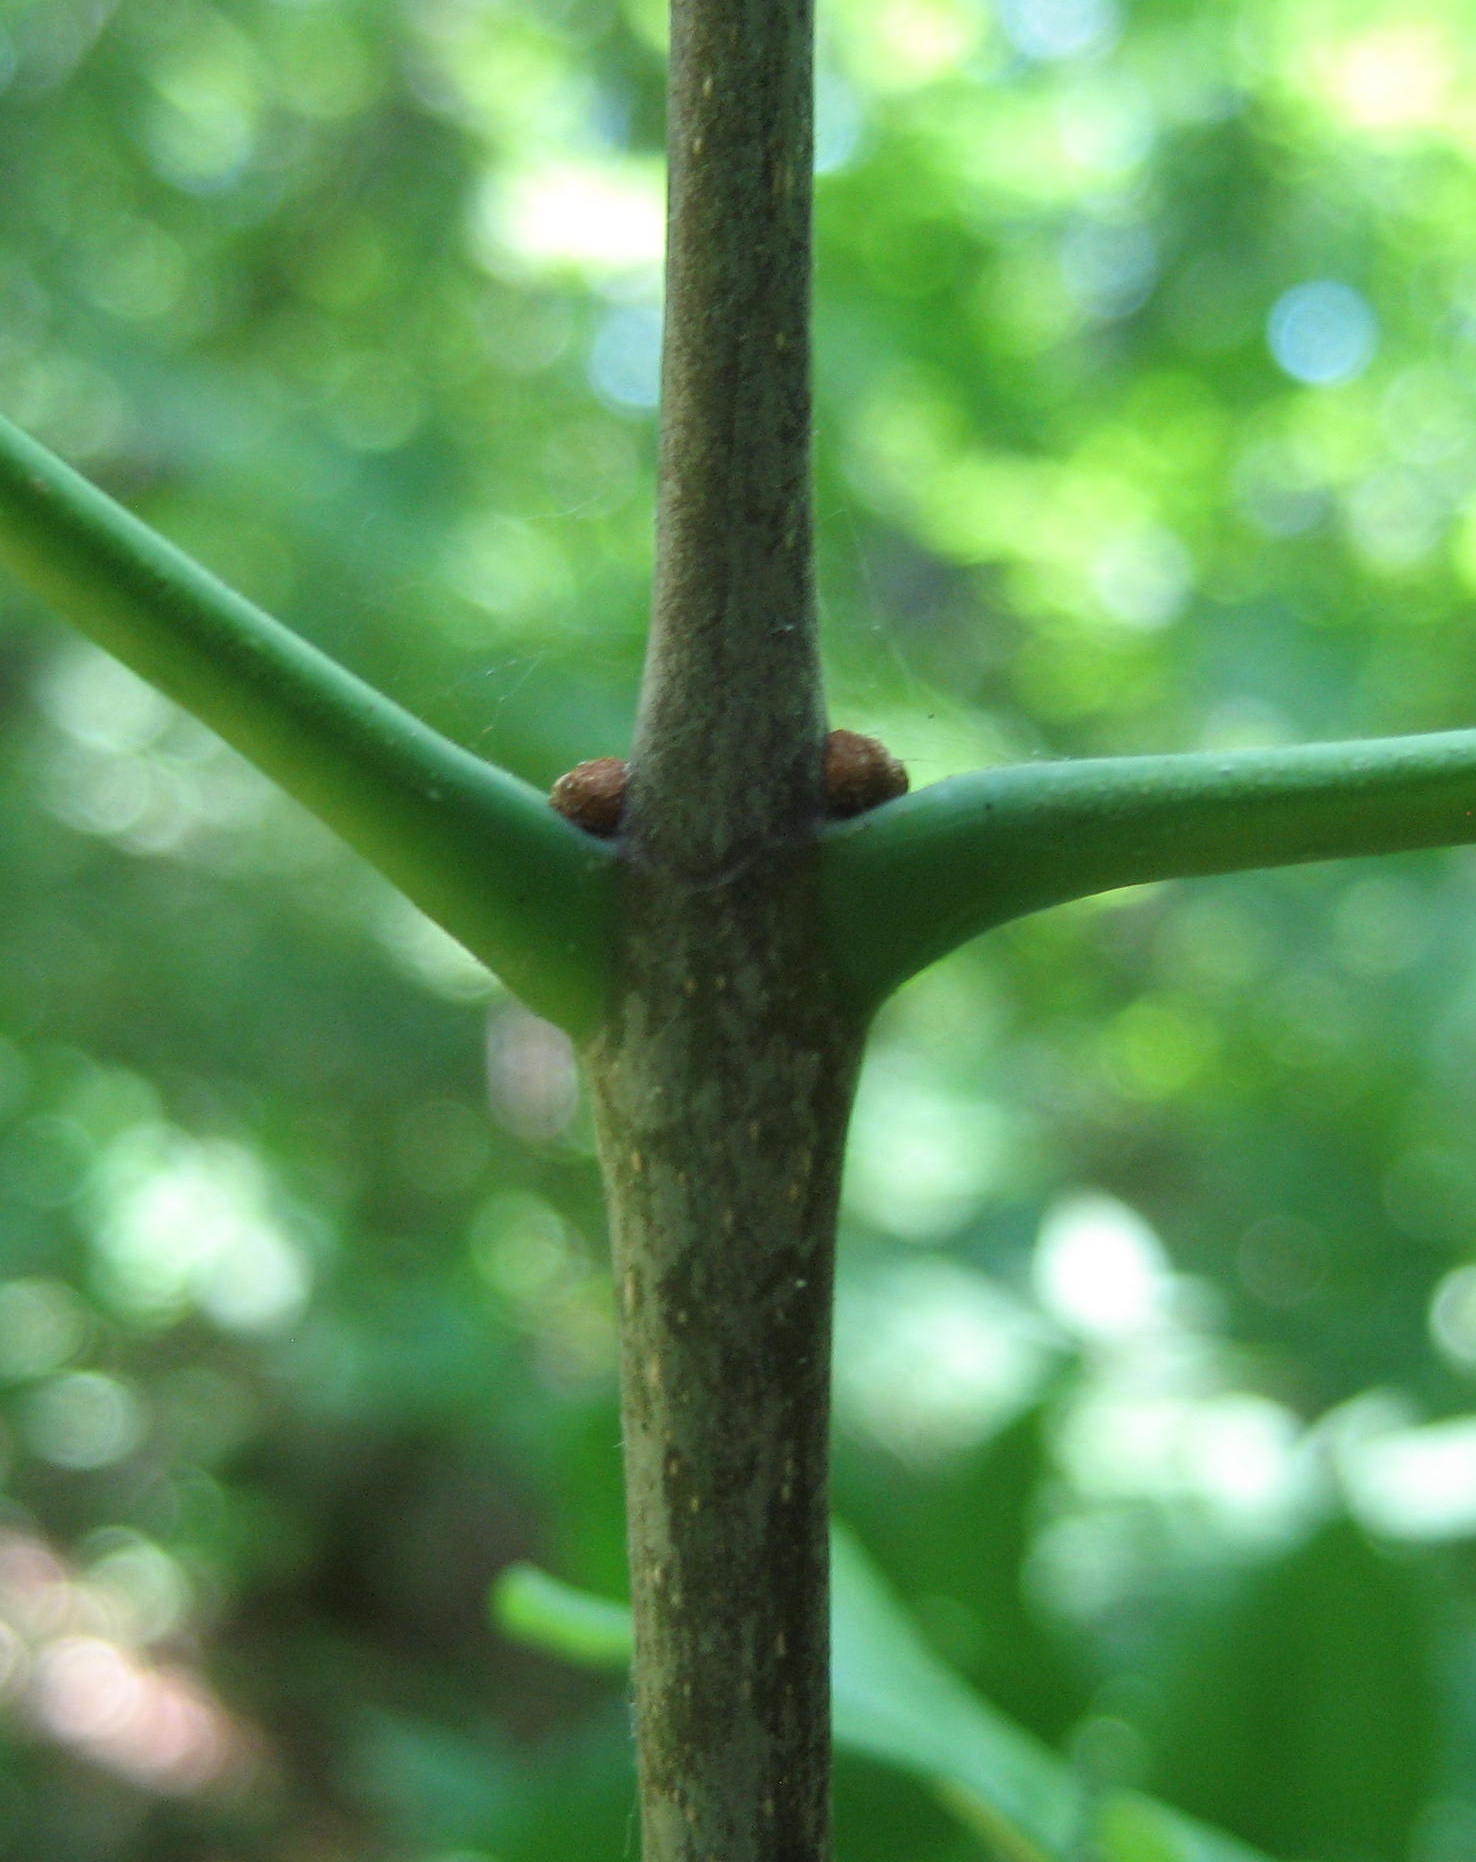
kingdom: Plantae
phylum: Tracheophyta
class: Magnoliopsida
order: Lamiales
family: Oleaceae
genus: Fraxinus
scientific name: Fraxinus americana
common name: White ash
